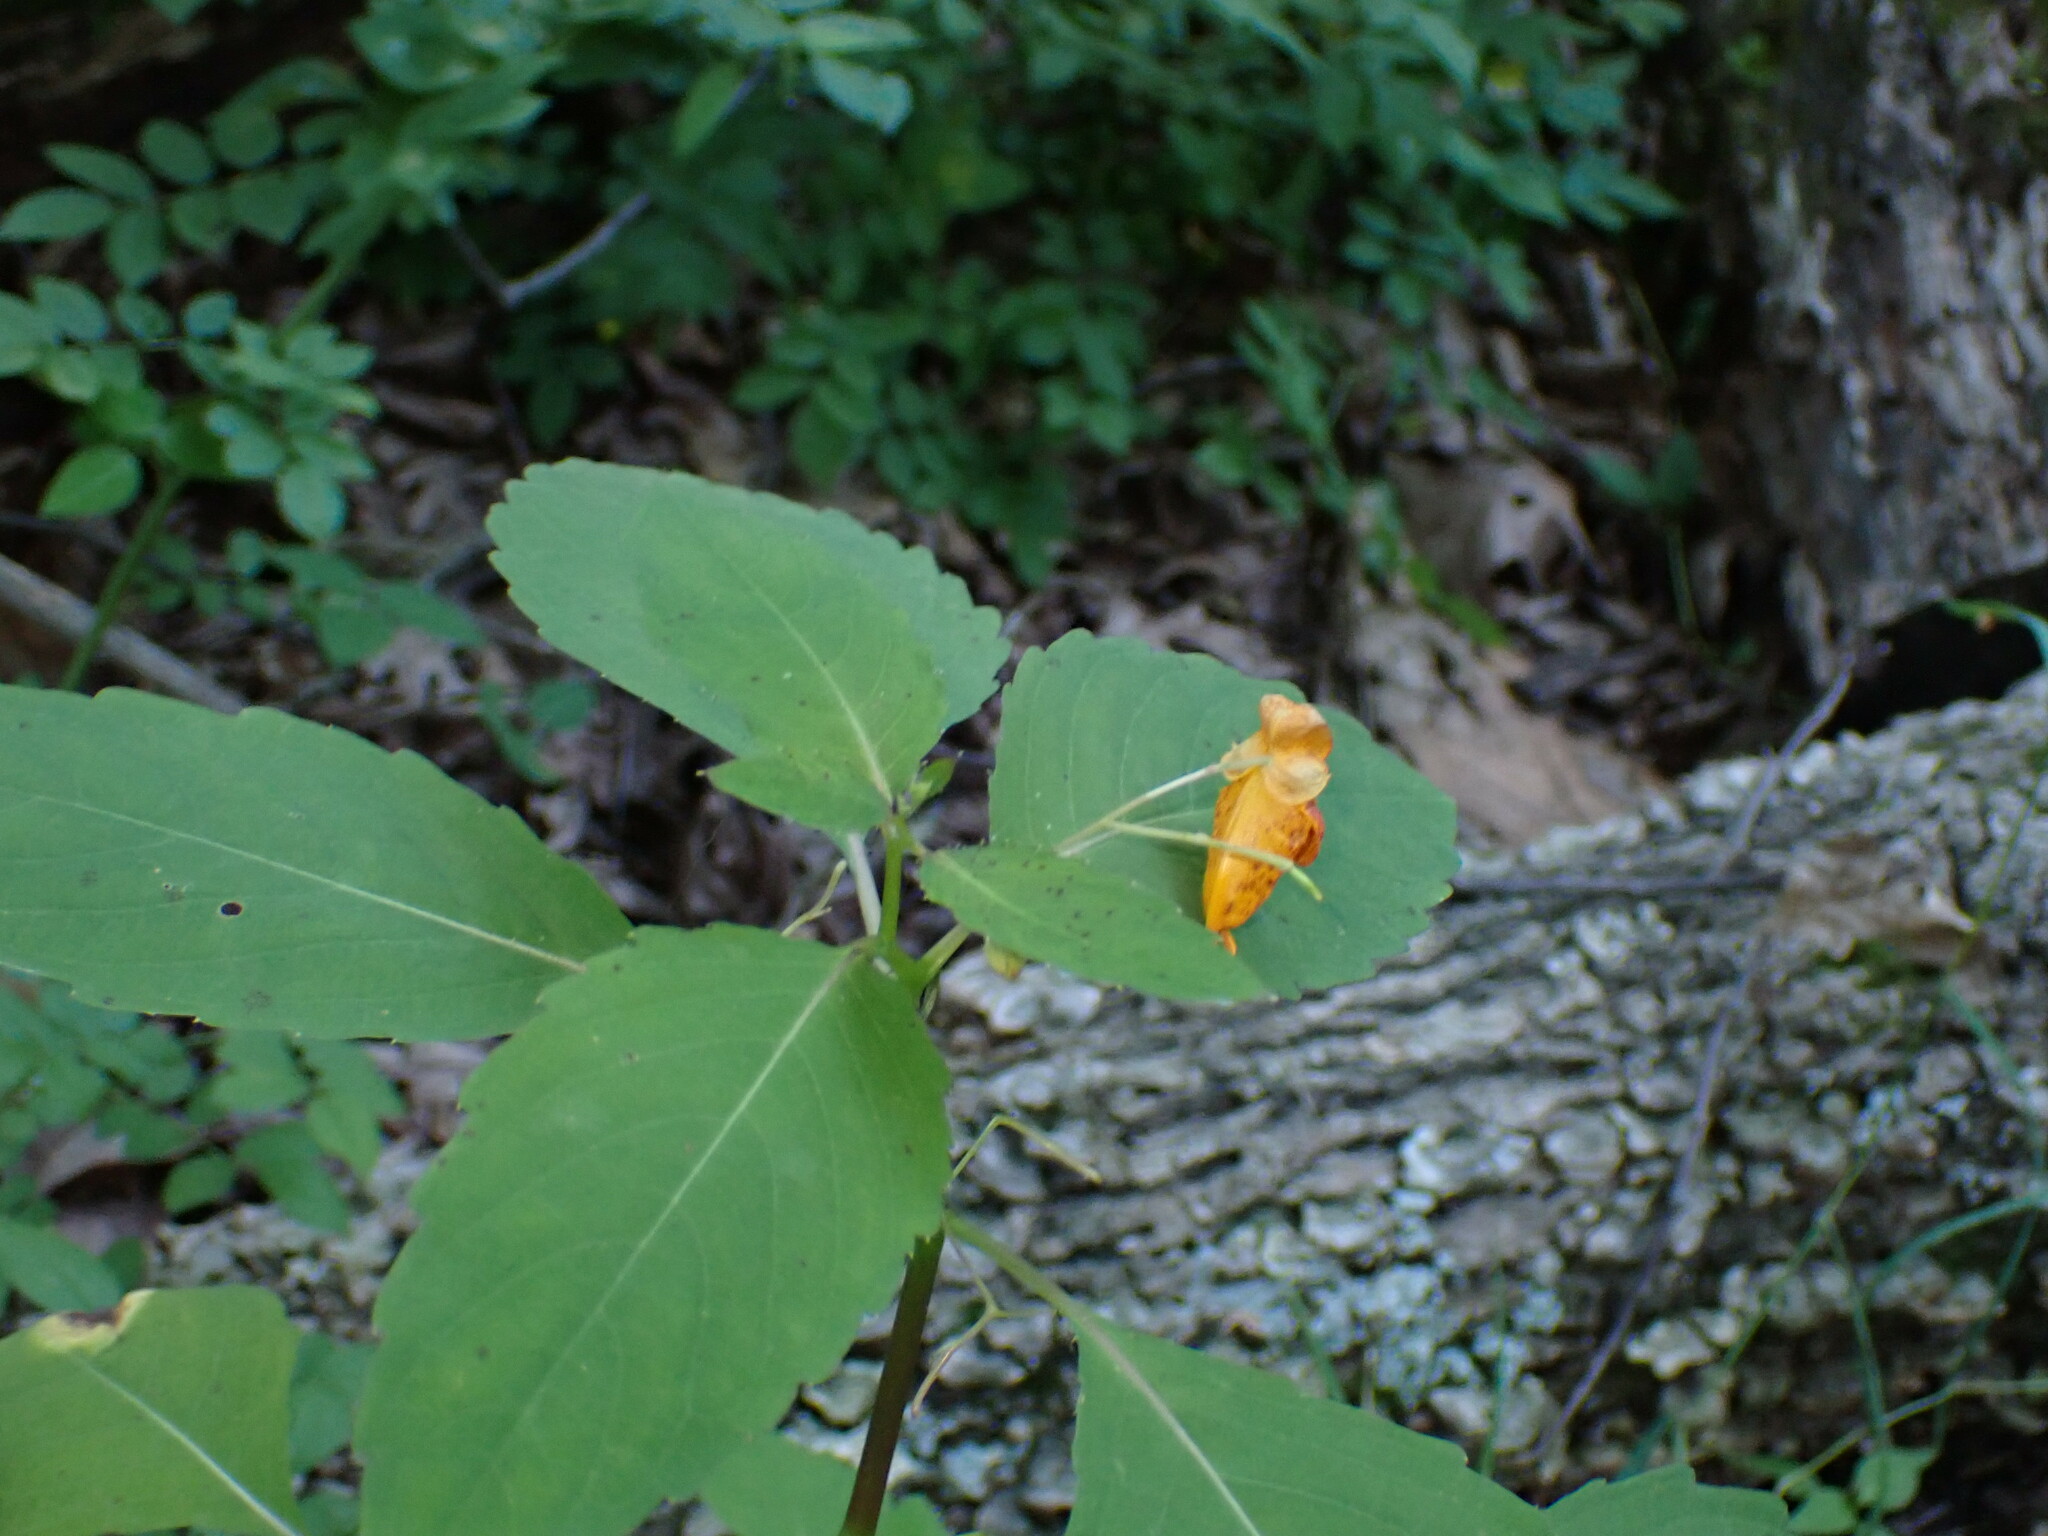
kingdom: Plantae
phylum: Tracheophyta
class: Magnoliopsida
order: Ericales
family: Balsaminaceae
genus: Impatiens
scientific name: Impatiens capensis
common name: Orange balsam
